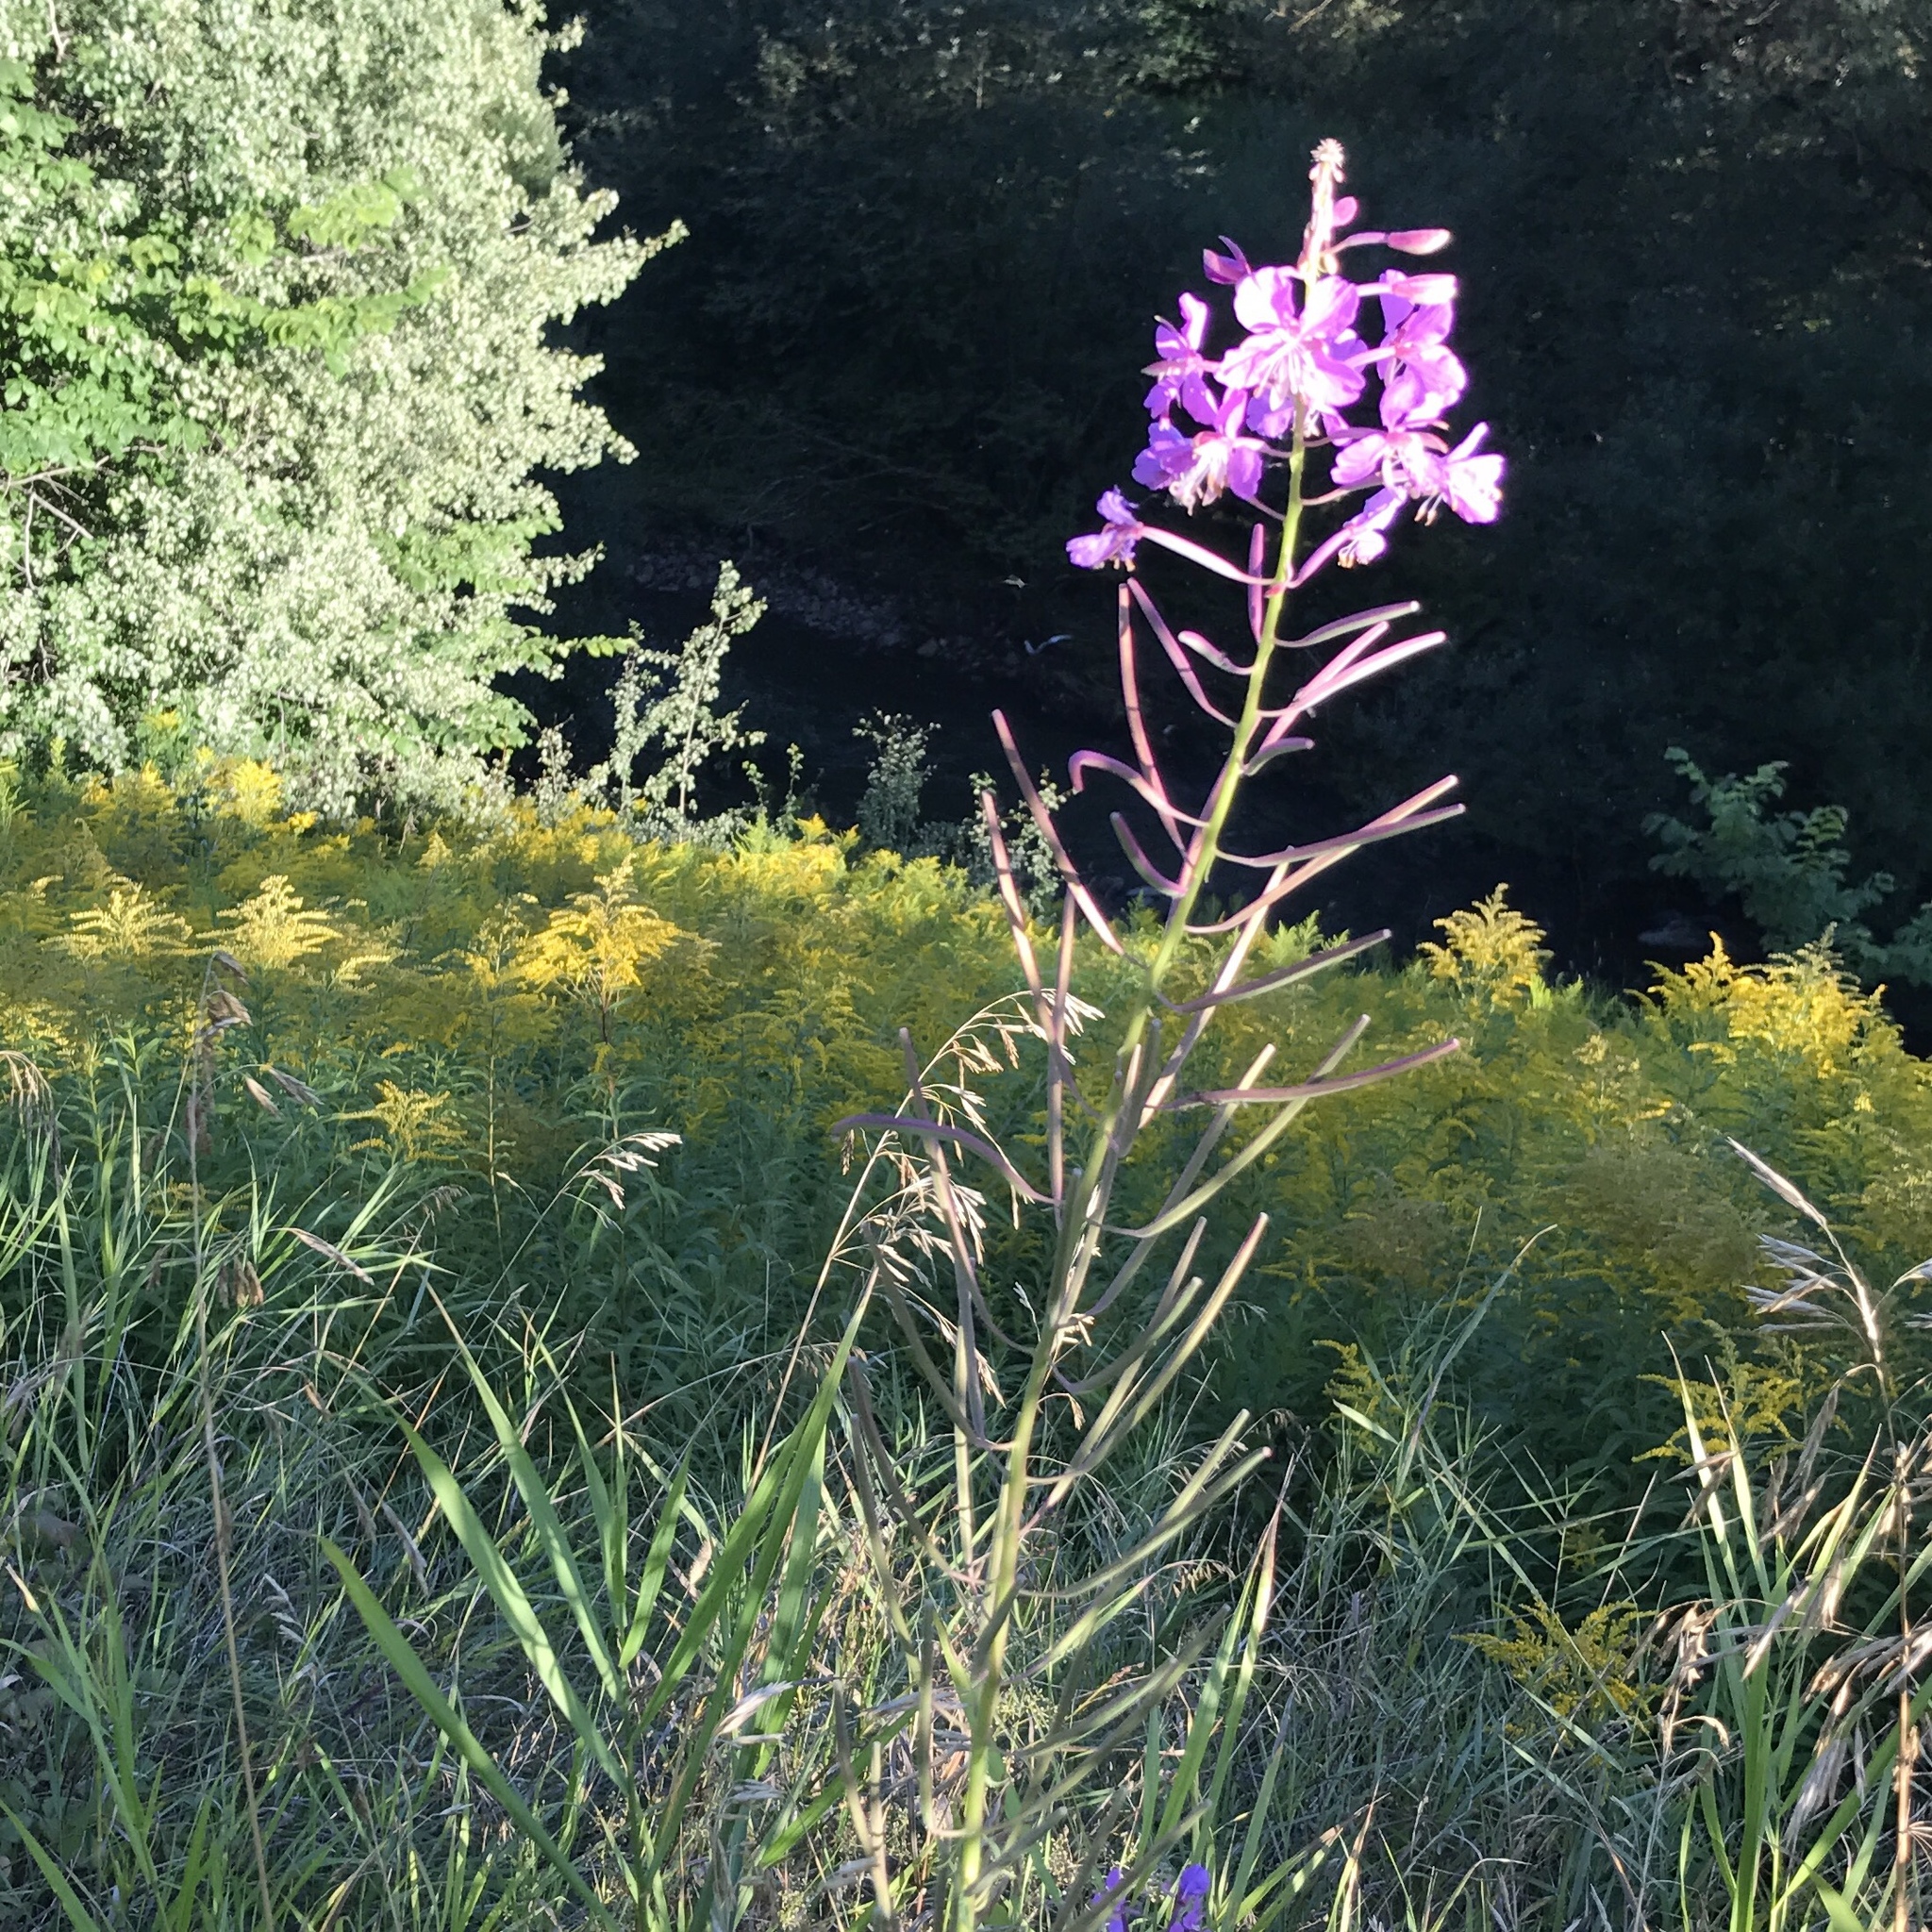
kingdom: Plantae
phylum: Tracheophyta
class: Magnoliopsida
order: Myrtales
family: Onagraceae
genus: Chamaenerion
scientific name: Chamaenerion angustifolium
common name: Fireweed
